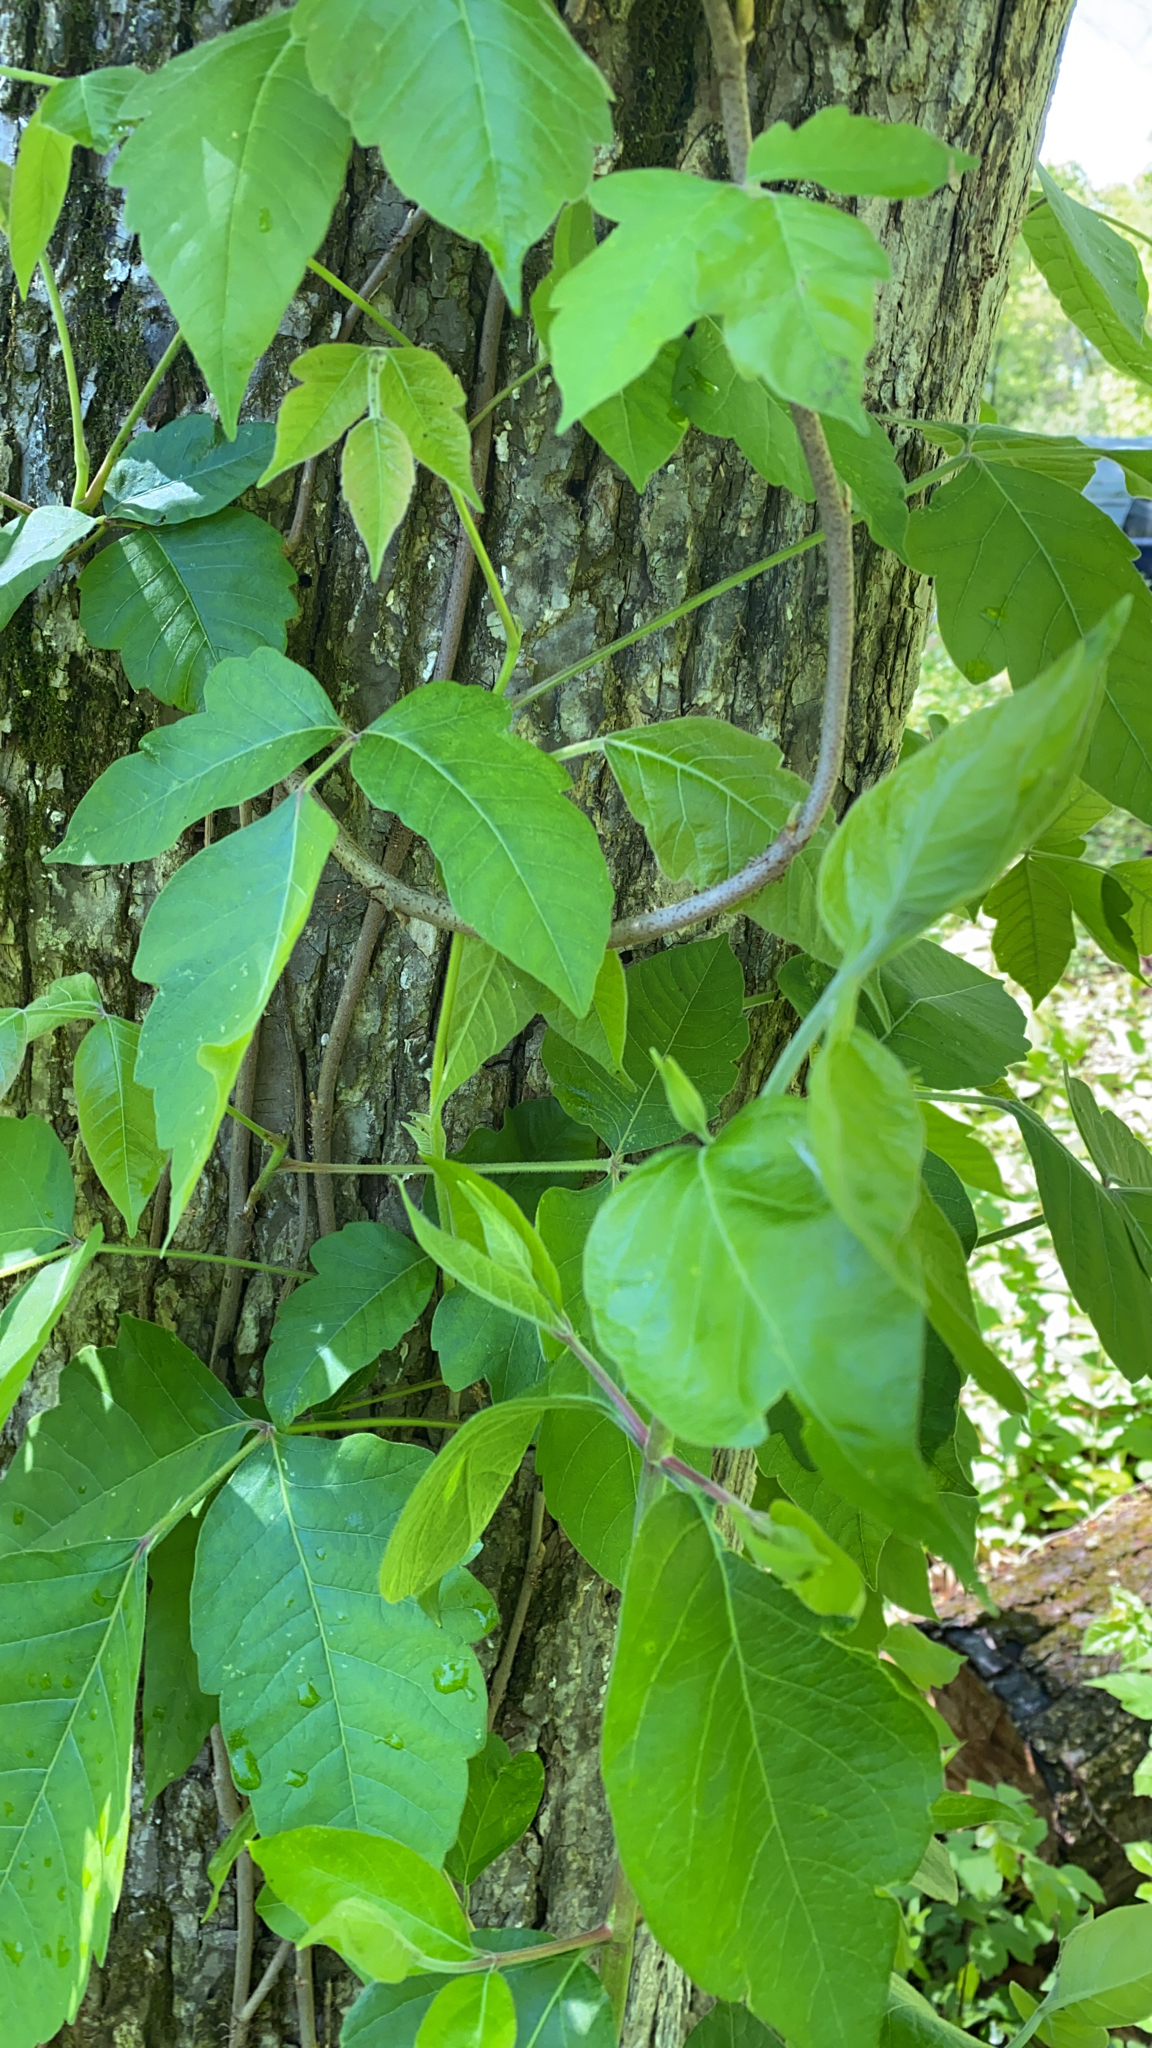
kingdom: Plantae
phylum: Tracheophyta
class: Magnoliopsida
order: Sapindales
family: Anacardiaceae
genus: Toxicodendron
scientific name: Toxicodendron radicans
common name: Poison ivy
